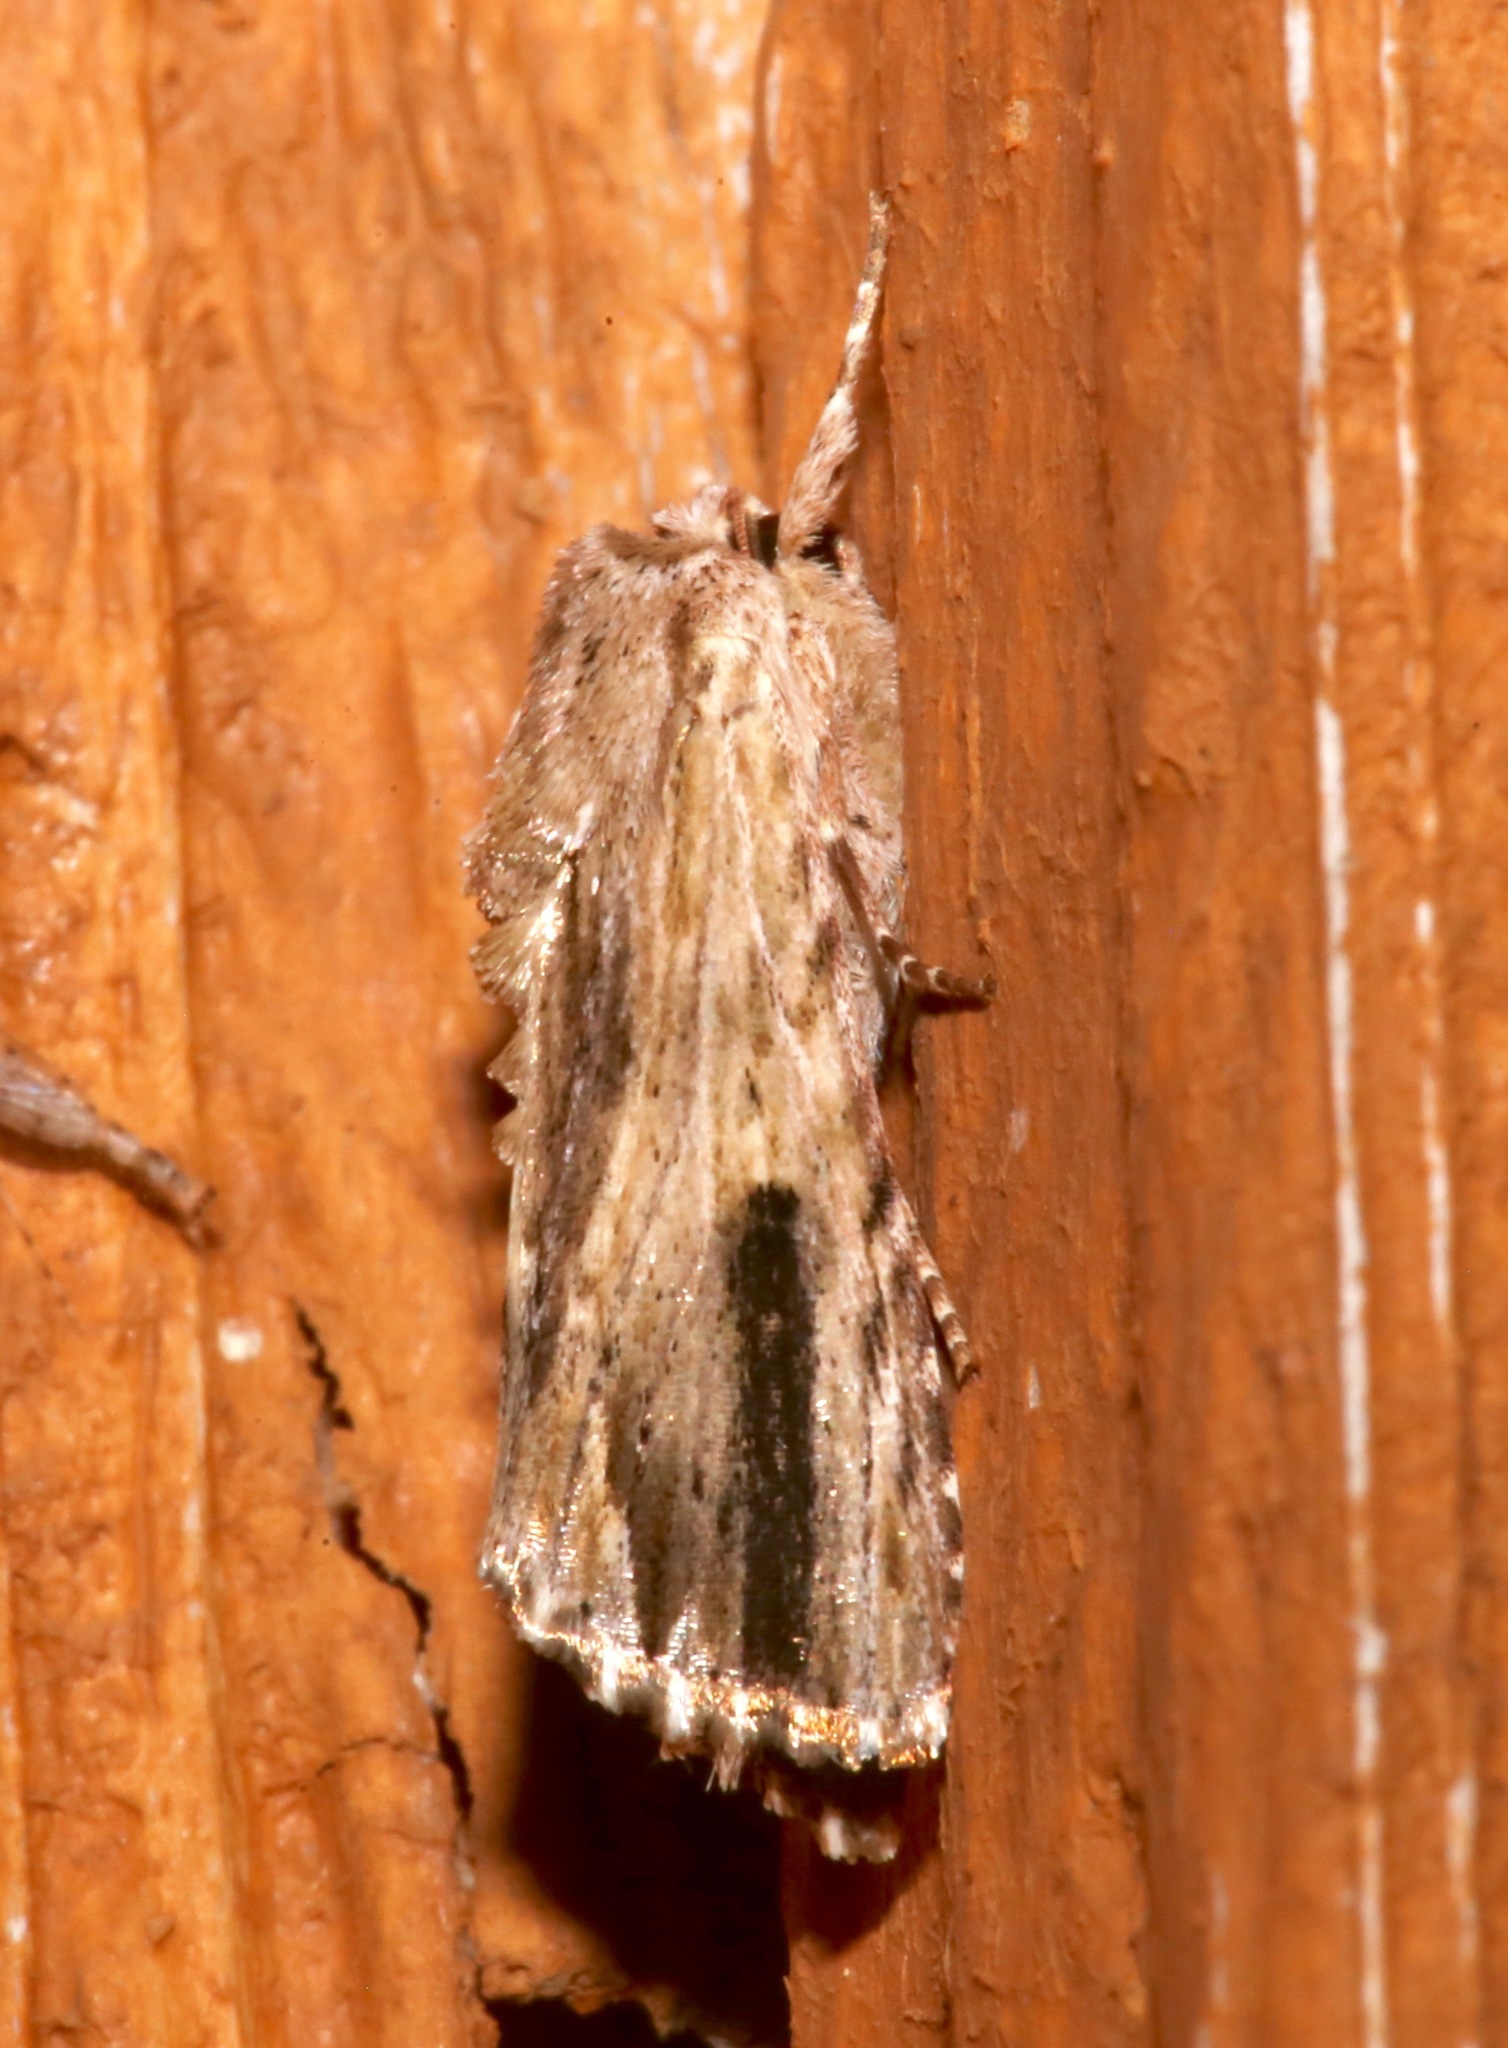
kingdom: Animalia
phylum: Arthropoda
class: Insecta
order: Lepidoptera
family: Noctuidae
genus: Spodoptera
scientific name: Spodoptera eridania
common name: Southern army worm
